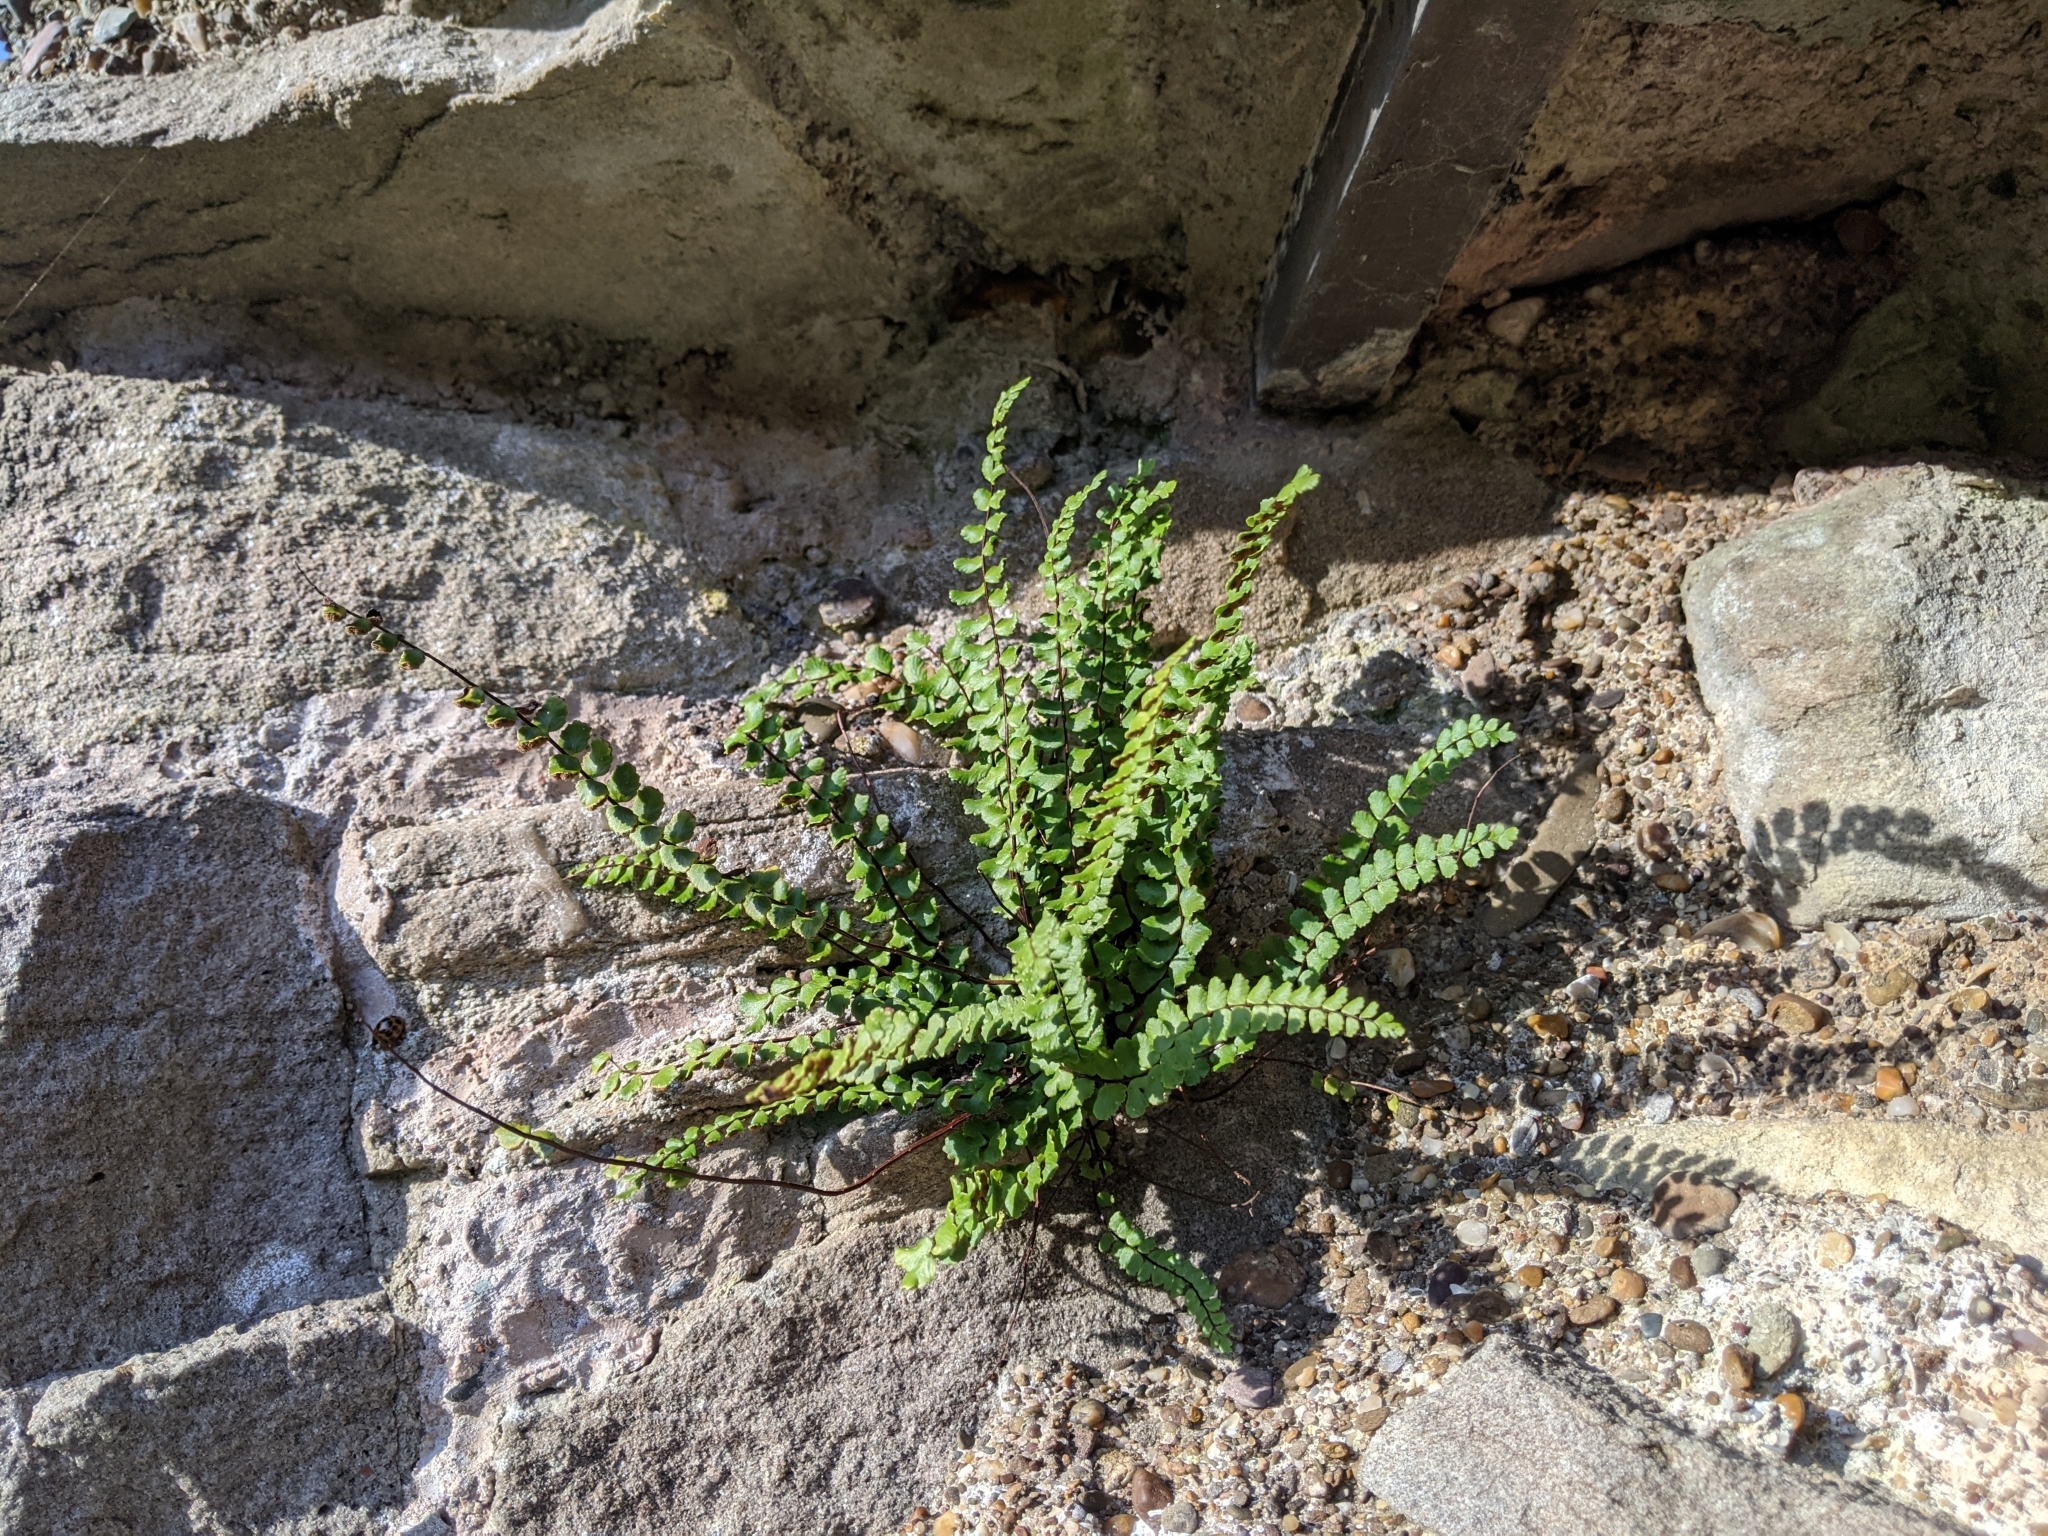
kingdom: Plantae
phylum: Tracheophyta
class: Polypodiopsida
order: Polypodiales
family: Aspleniaceae
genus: Asplenium
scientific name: Asplenium trichomanes
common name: Maidenhair spleenwort
